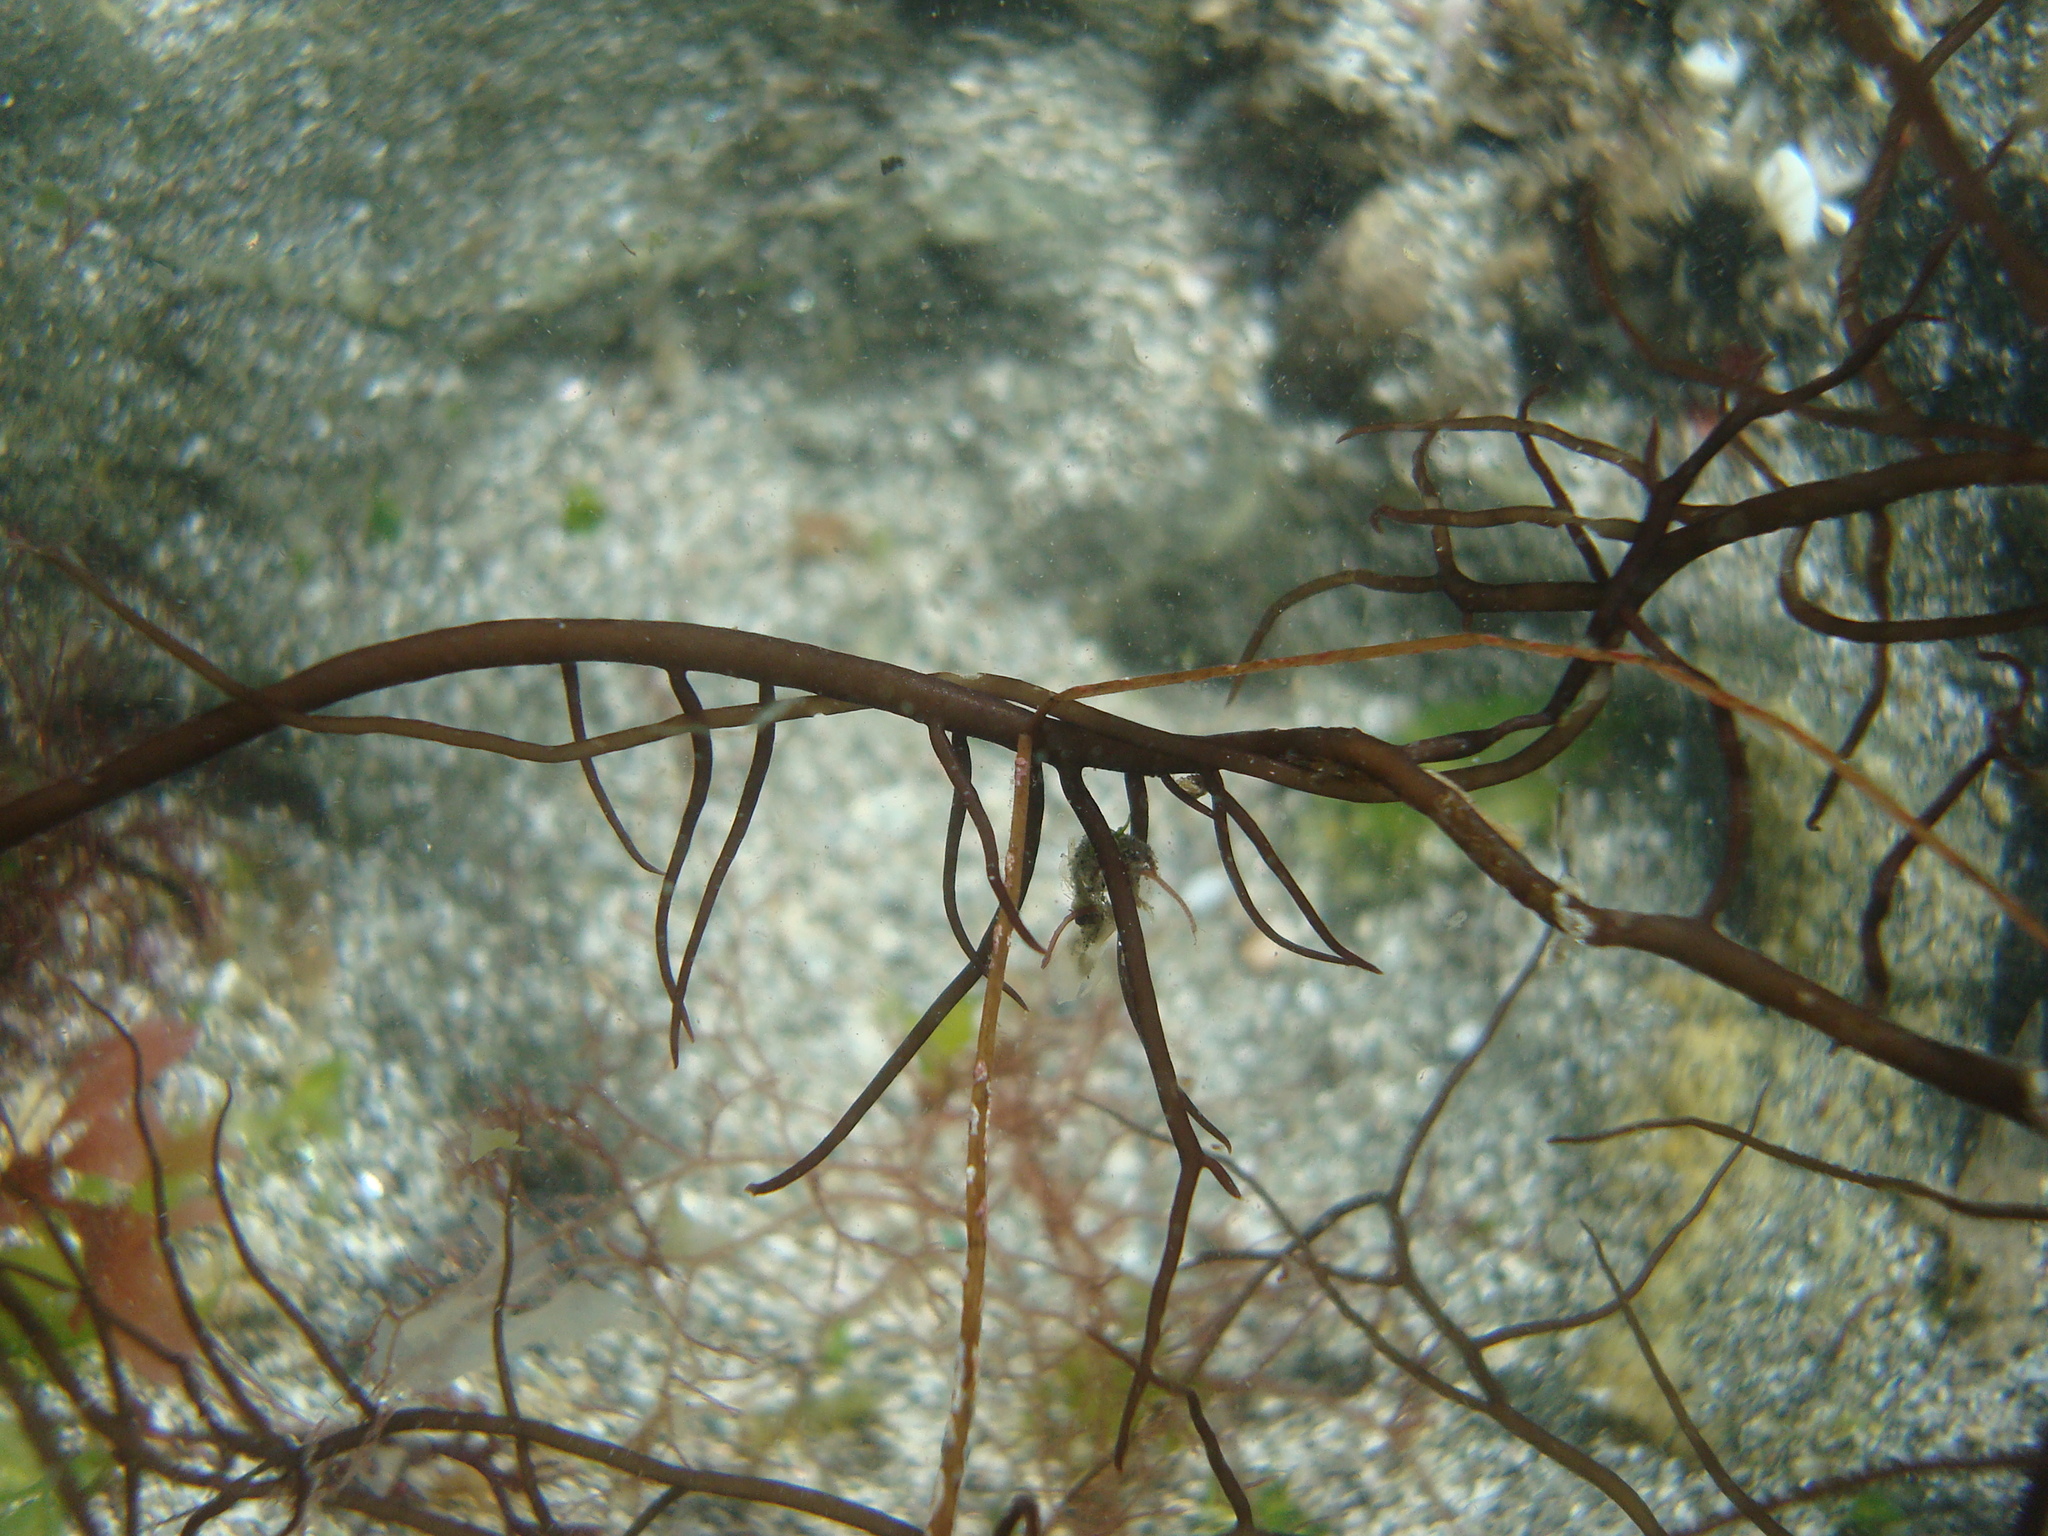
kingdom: Plantae
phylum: Rhodophyta
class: Florideophyceae
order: Gracilariales
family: Gracilariaceae
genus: Gracilaria
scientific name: Gracilaria chilensis
